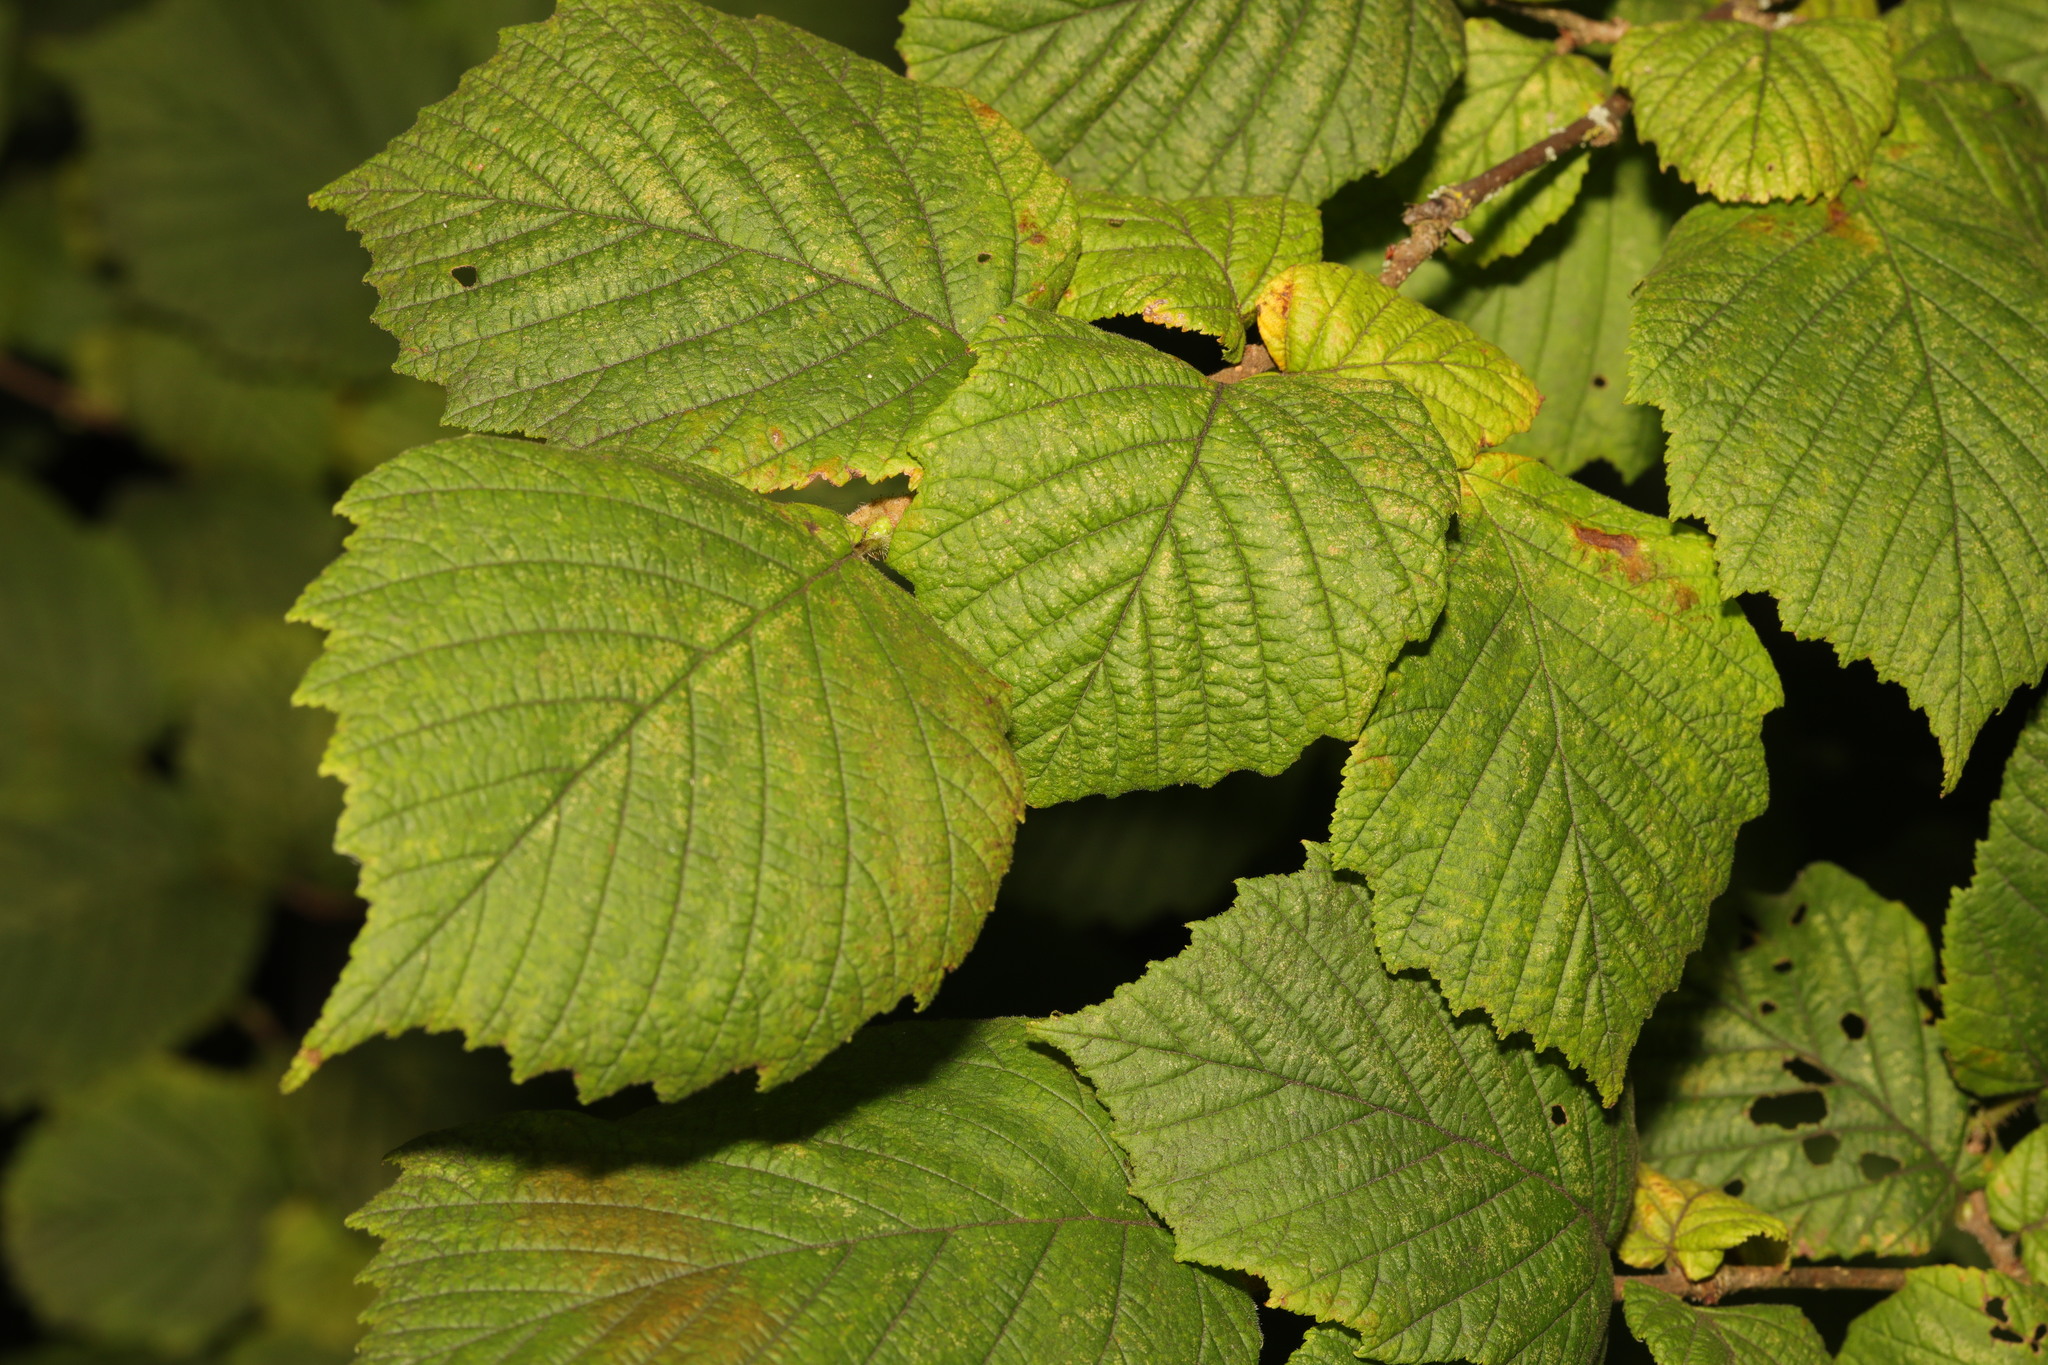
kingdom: Plantae
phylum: Tracheophyta
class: Magnoliopsida
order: Fagales
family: Betulaceae
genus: Corylus
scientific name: Corylus avellana
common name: European hazel
